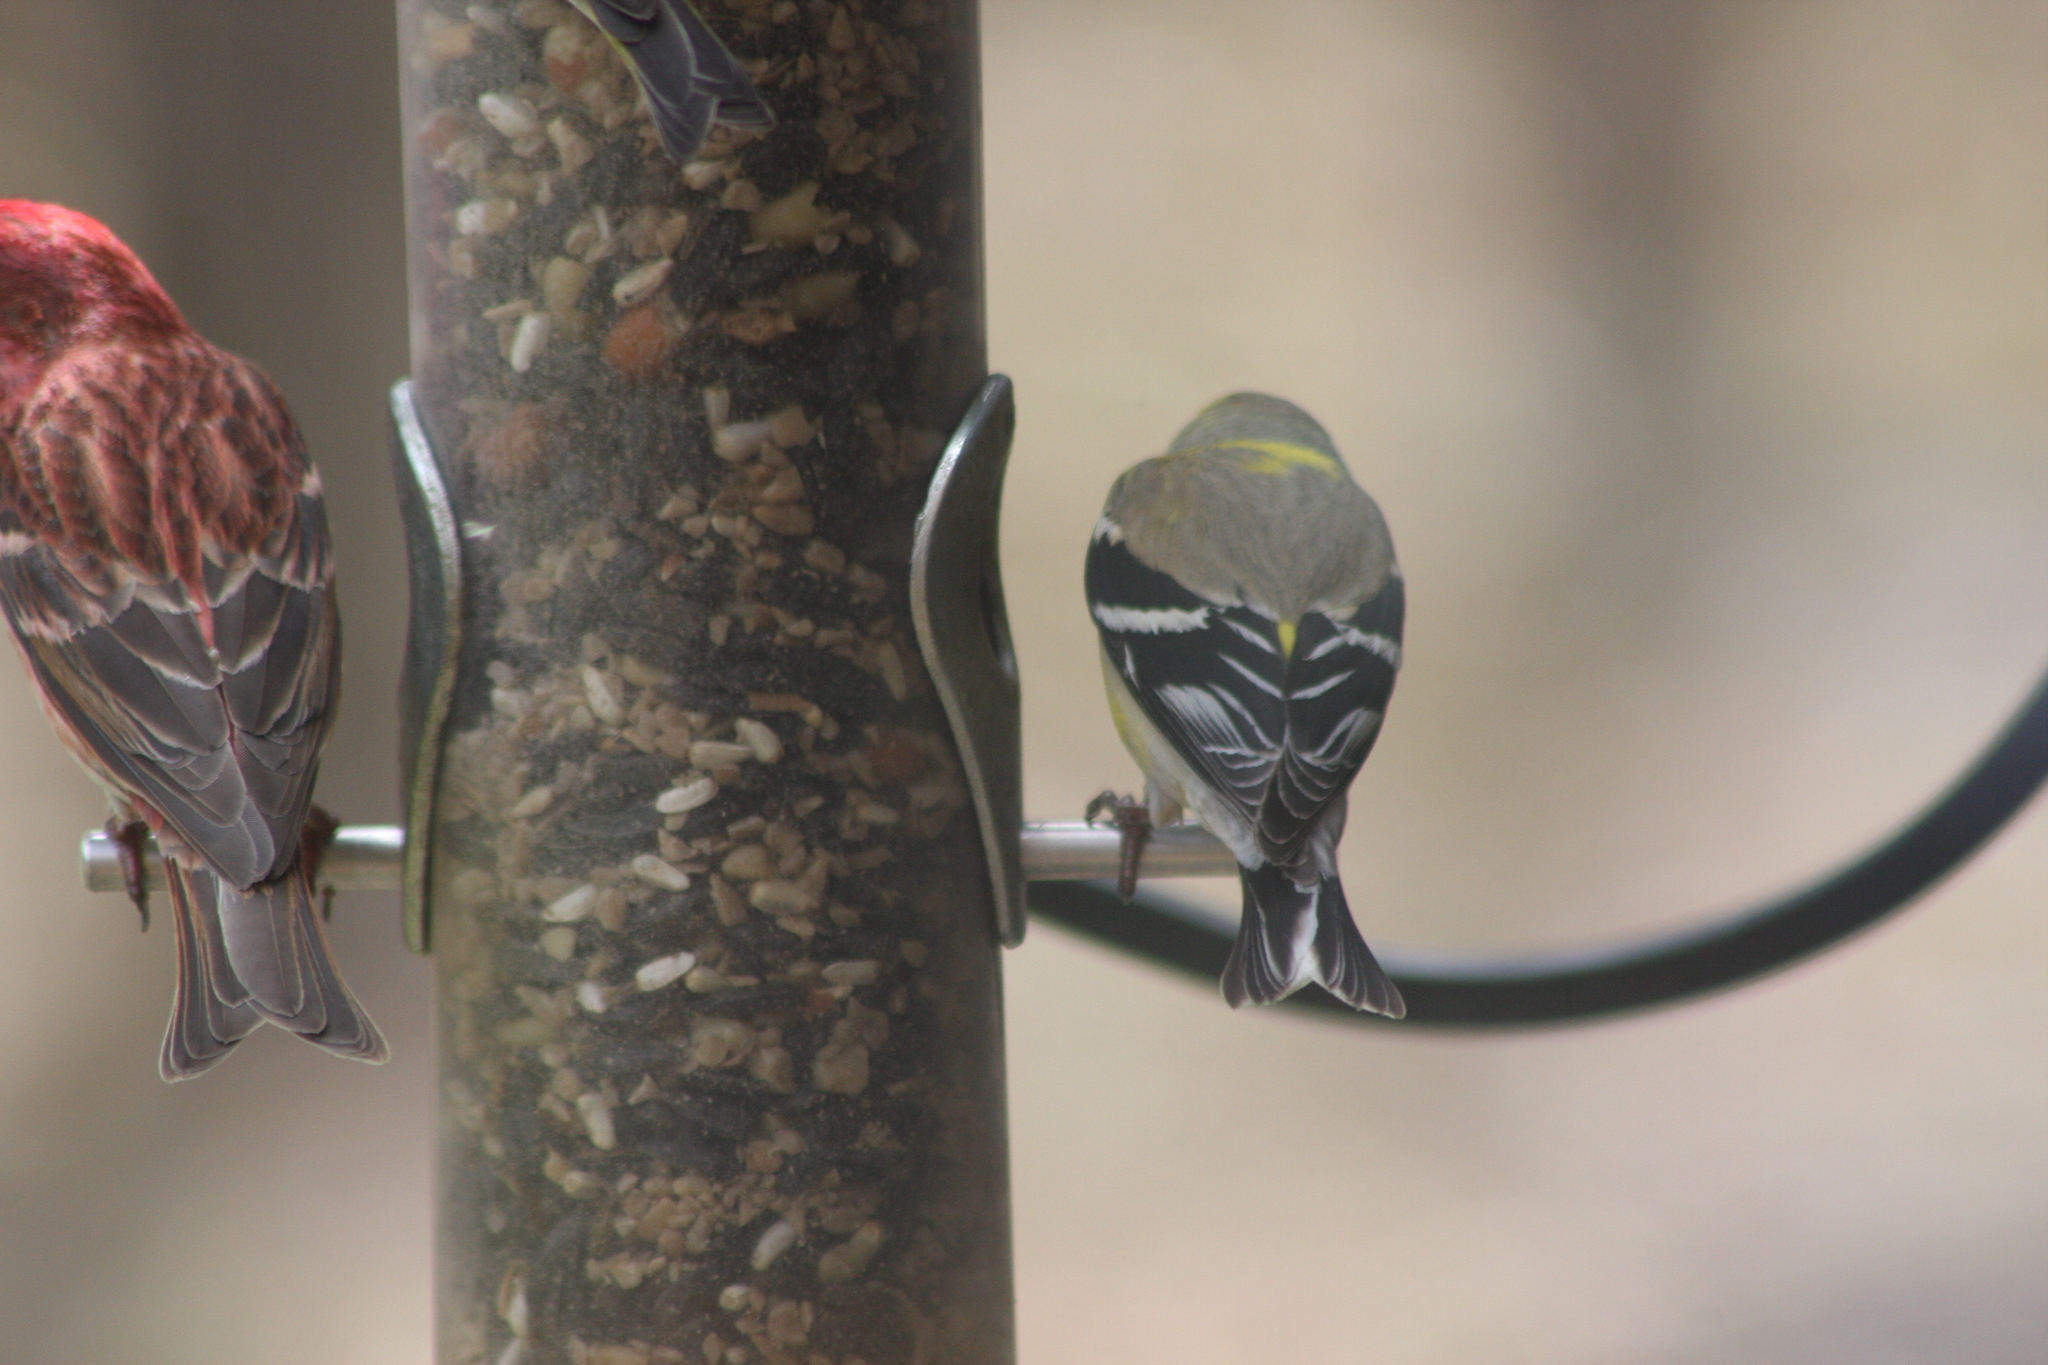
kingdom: Animalia
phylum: Chordata
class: Aves
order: Passeriformes
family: Fringillidae
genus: Spinus
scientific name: Spinus tristis
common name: American goldfinch
